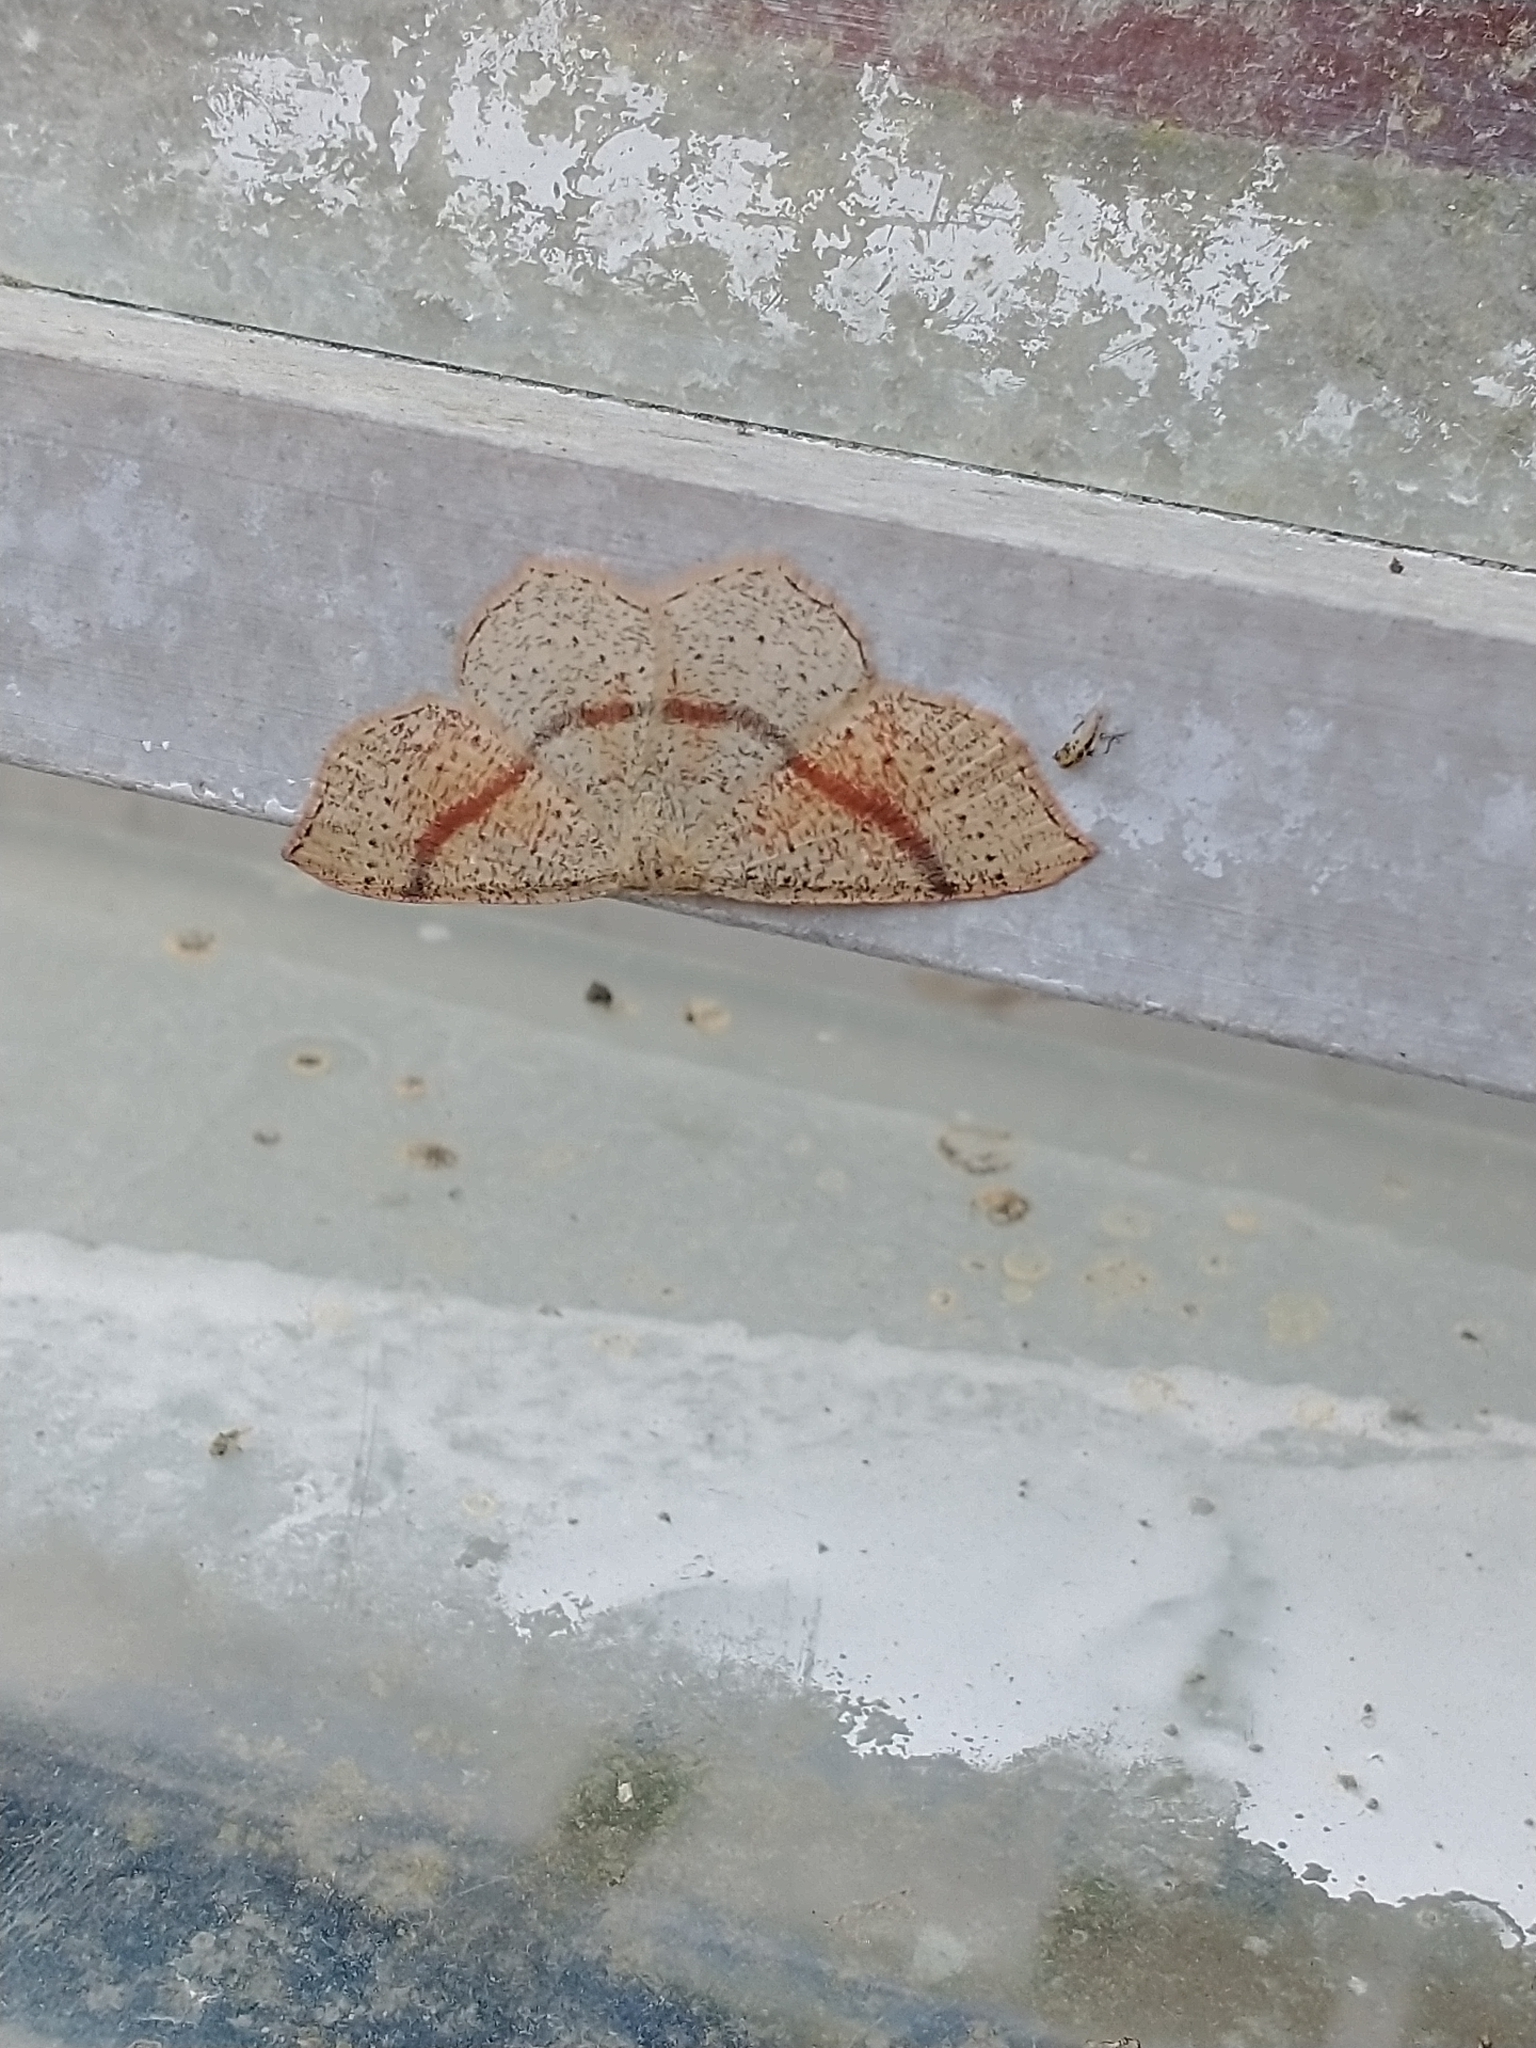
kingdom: Animalia
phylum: Arthropoda
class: Insecta
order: Lepidoptera
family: Geometridae
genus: Cyclophora
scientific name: Cyclophora punctaria
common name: Maiden's blush
